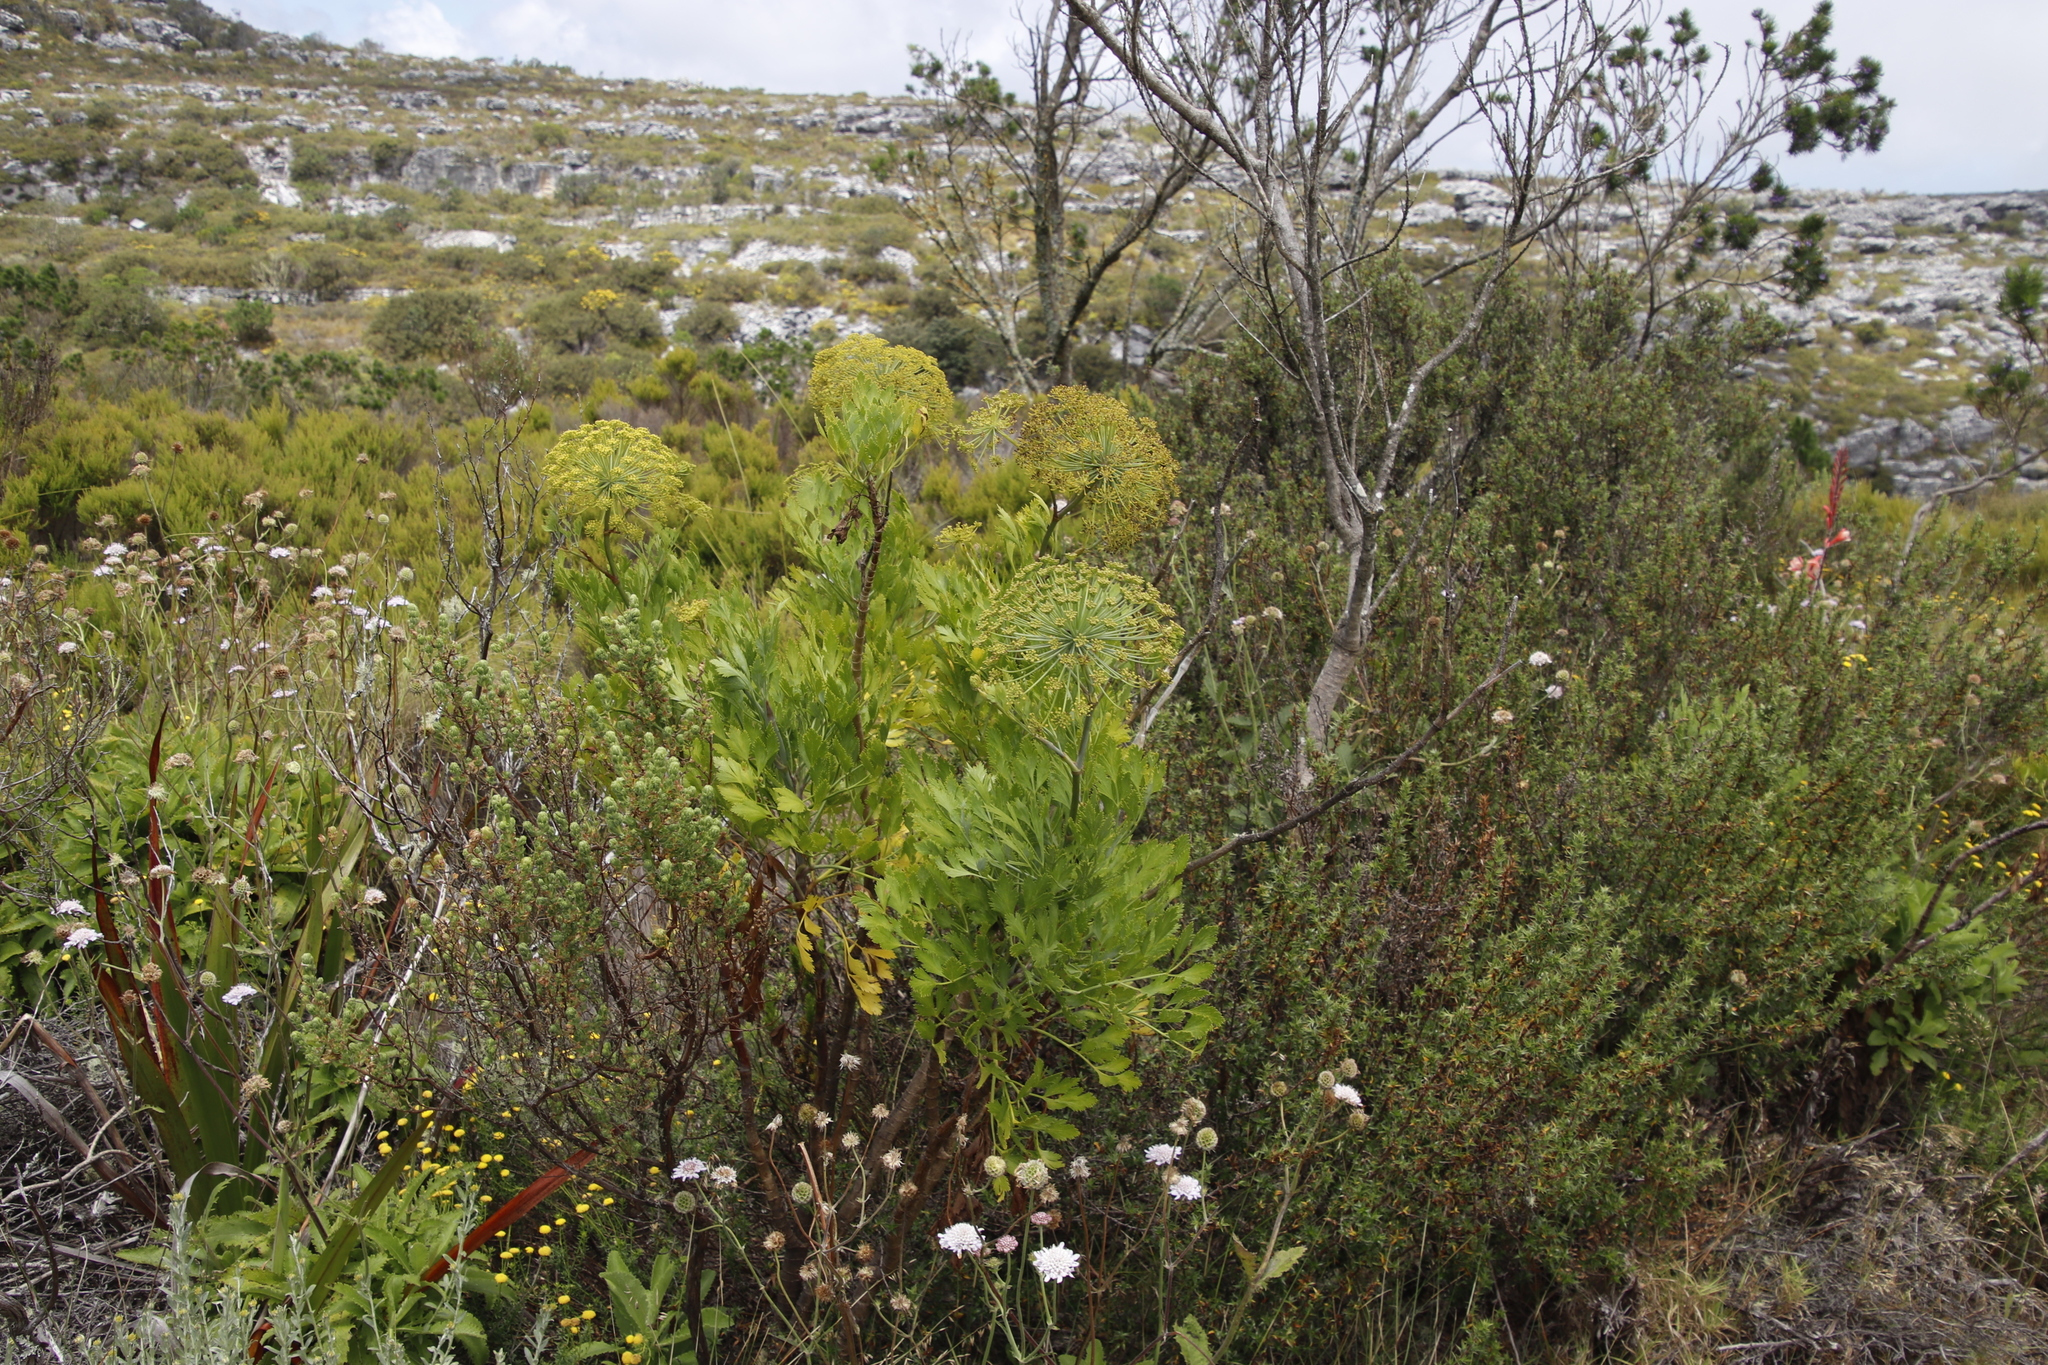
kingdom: Plantae
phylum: Tracheophyta
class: Magnoliopsida
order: Apiales
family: Apiaceae
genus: Notobubon
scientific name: Notobubon galbanum
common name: Blisterbush
